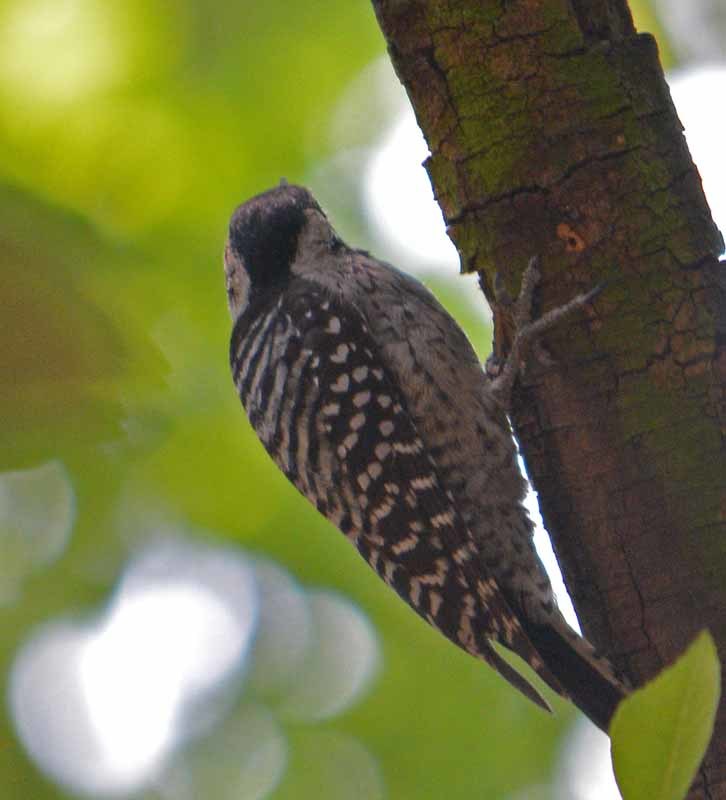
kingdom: Animalia
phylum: Chordata
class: Aves
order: Piciformes
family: Picidae
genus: Dryobates
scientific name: Dryobates scalaris
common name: Ladder-backed woodpecker
